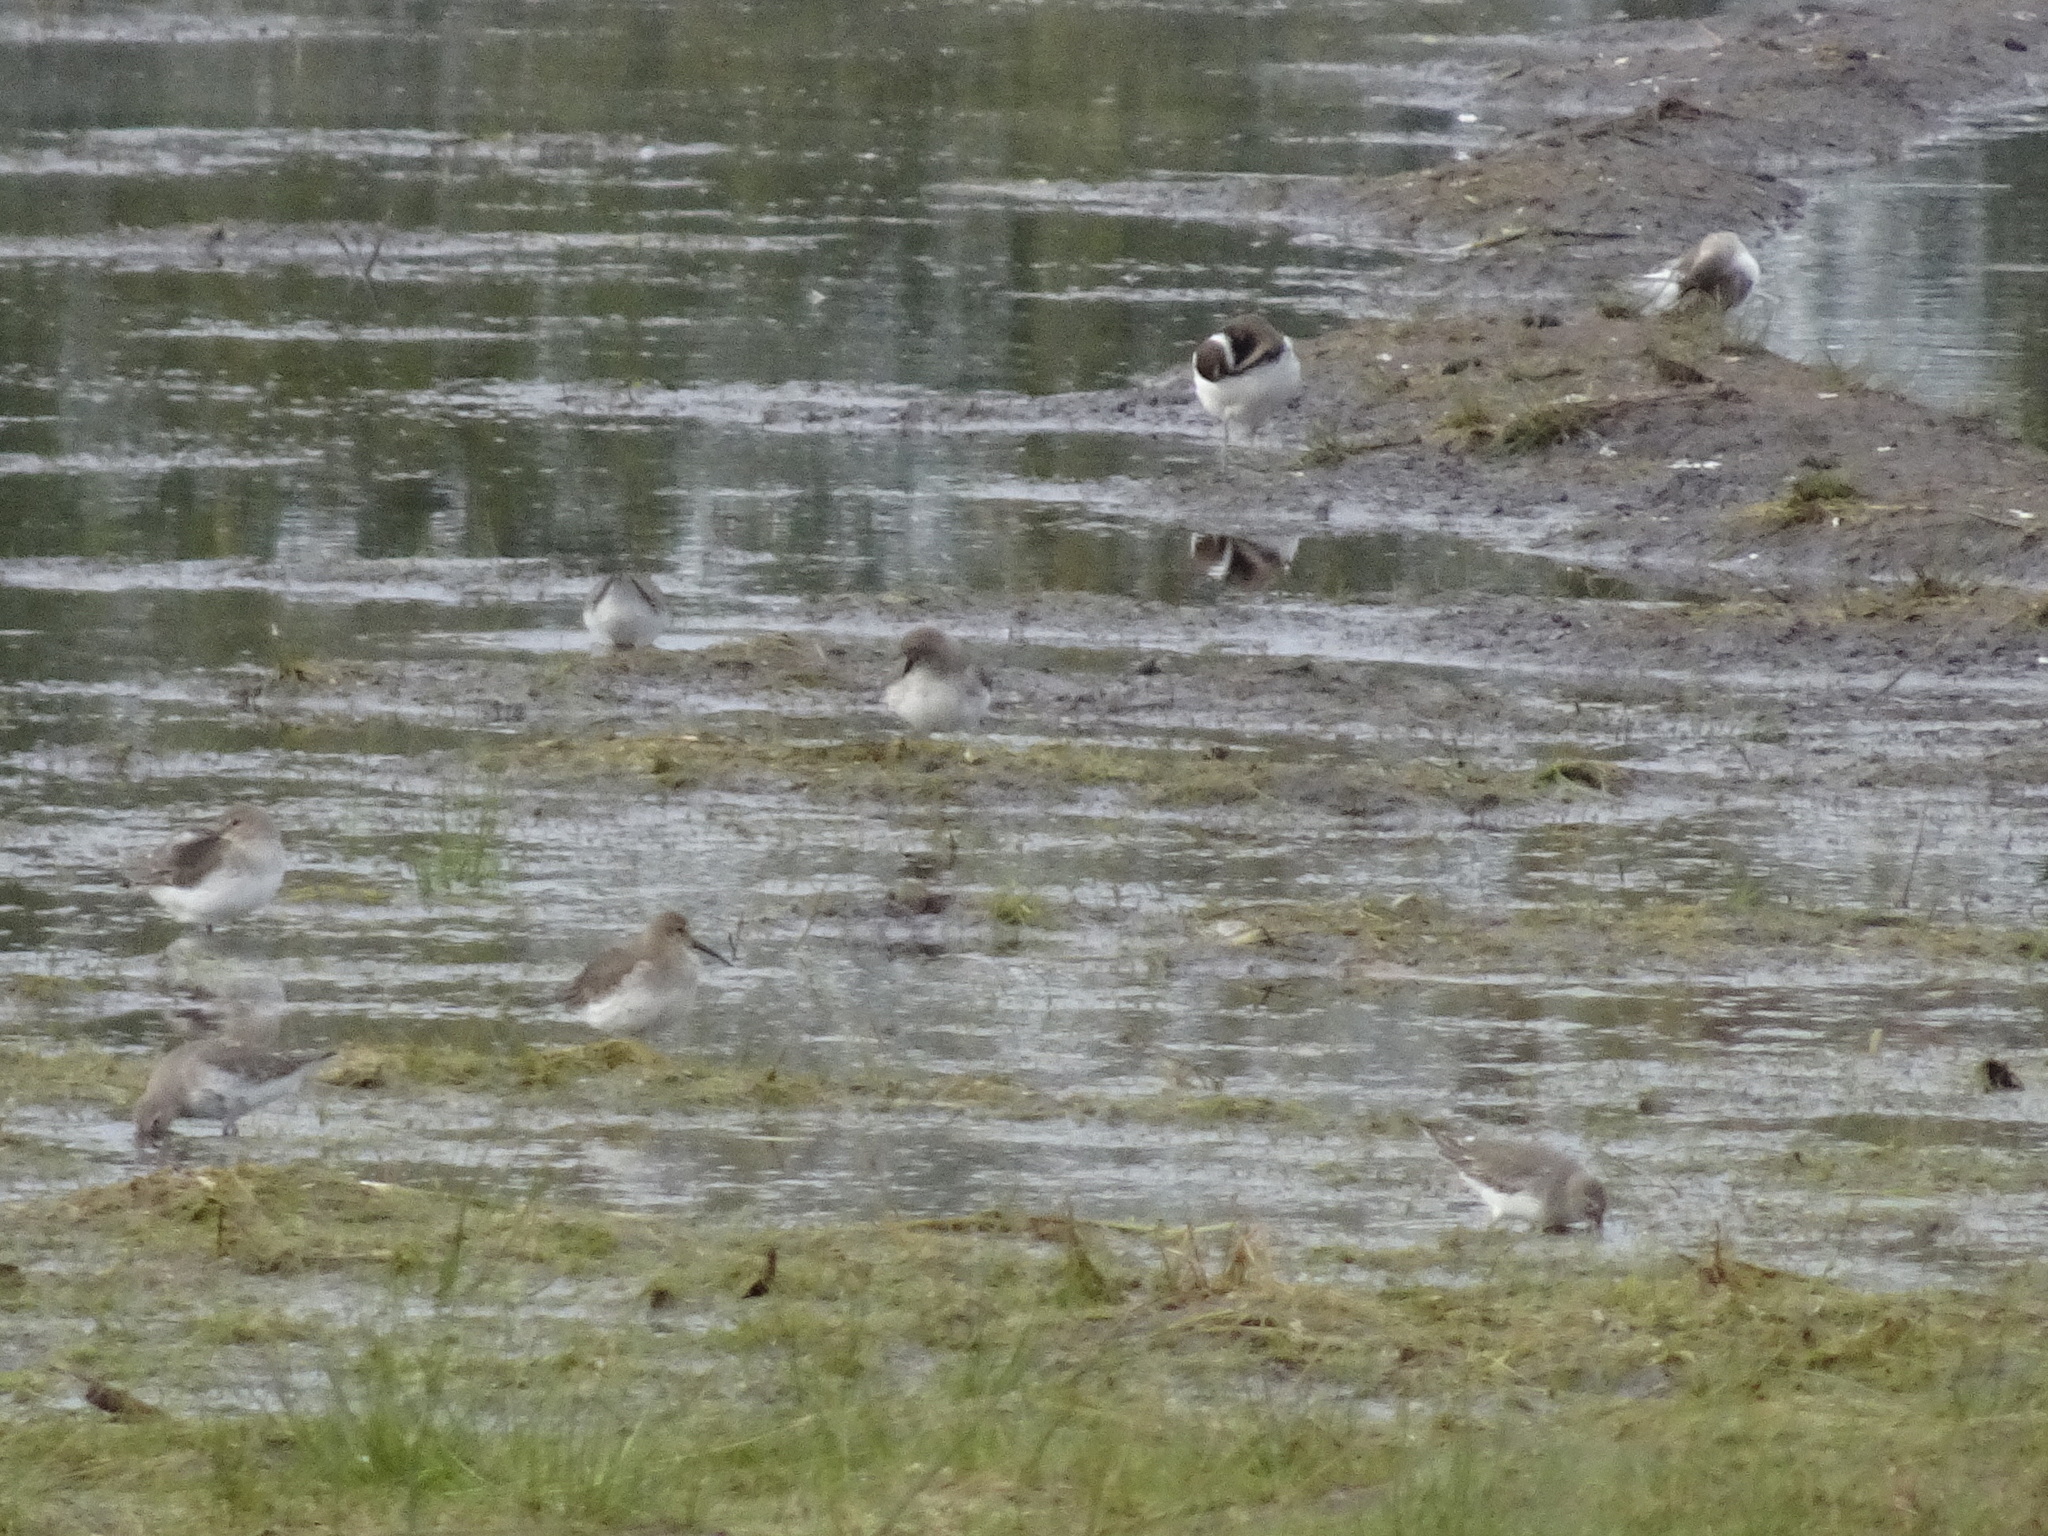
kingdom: Animalia
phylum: Chordata
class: Aves
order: Charadriiformes
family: Scolopacidae
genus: Calidris
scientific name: Calidris alpina
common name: Dunlin
